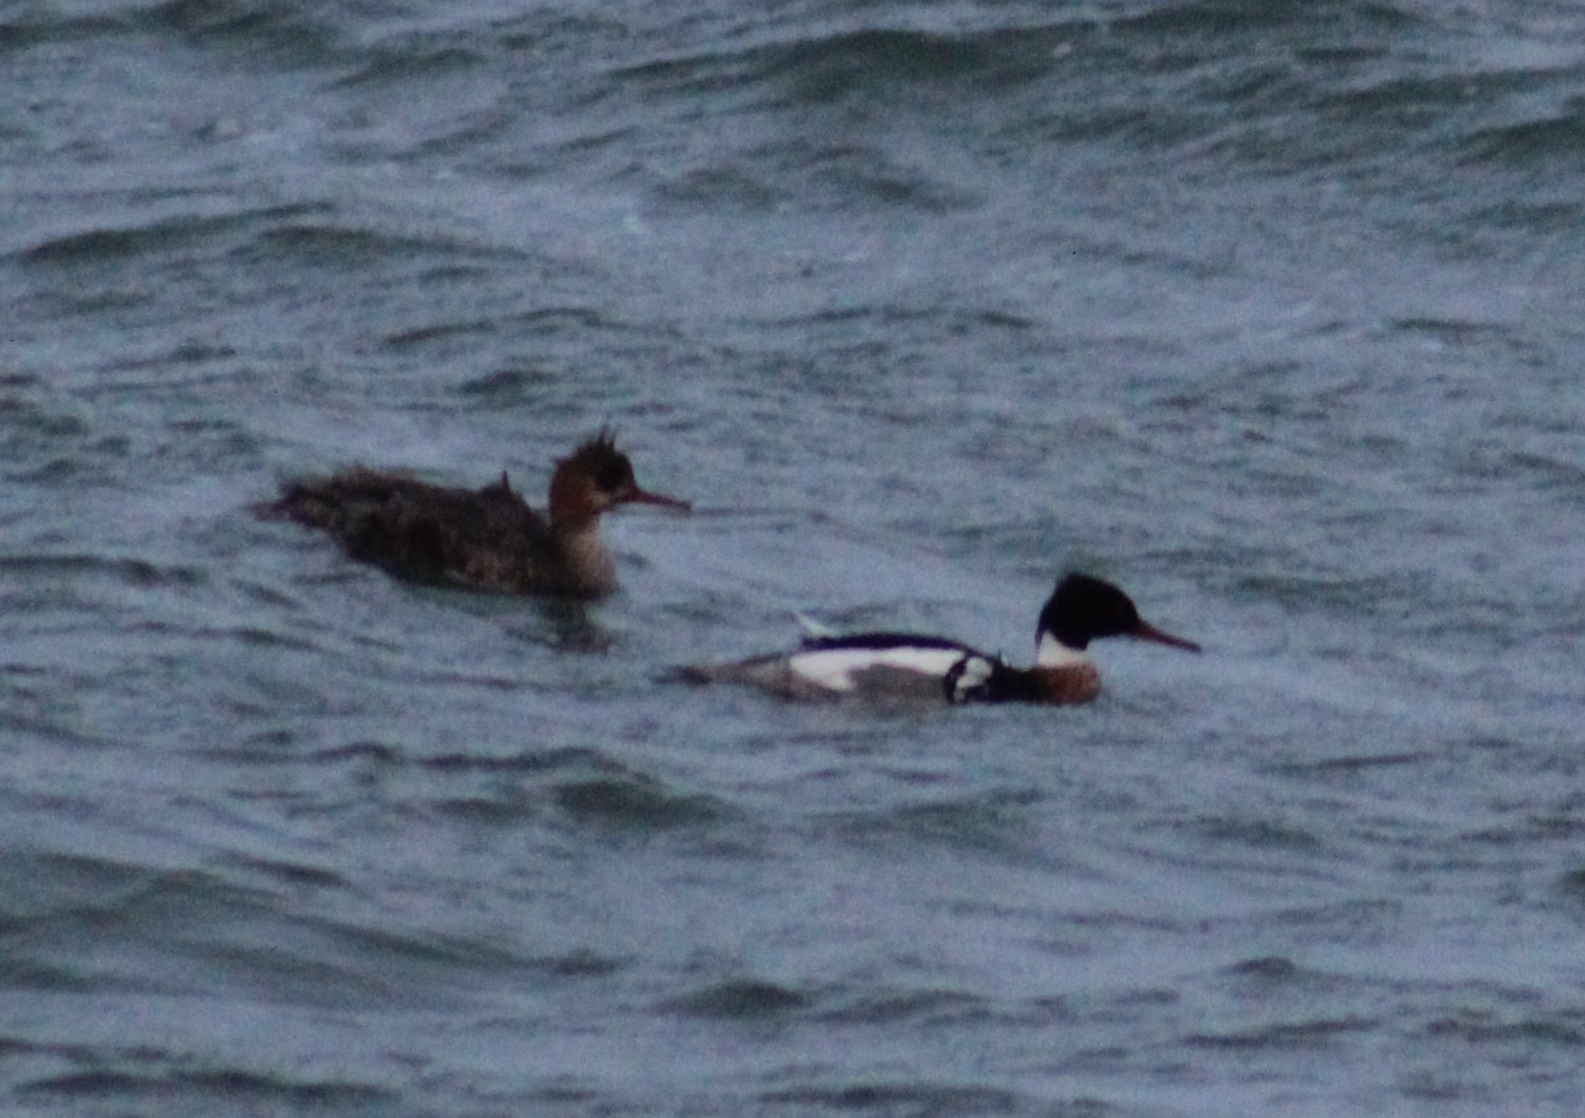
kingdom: Animalia
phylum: Chordata
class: Aves
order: Anseriformes
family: Anatidae
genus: Mergus
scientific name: Mergus serrator
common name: Red-breasted merganser
